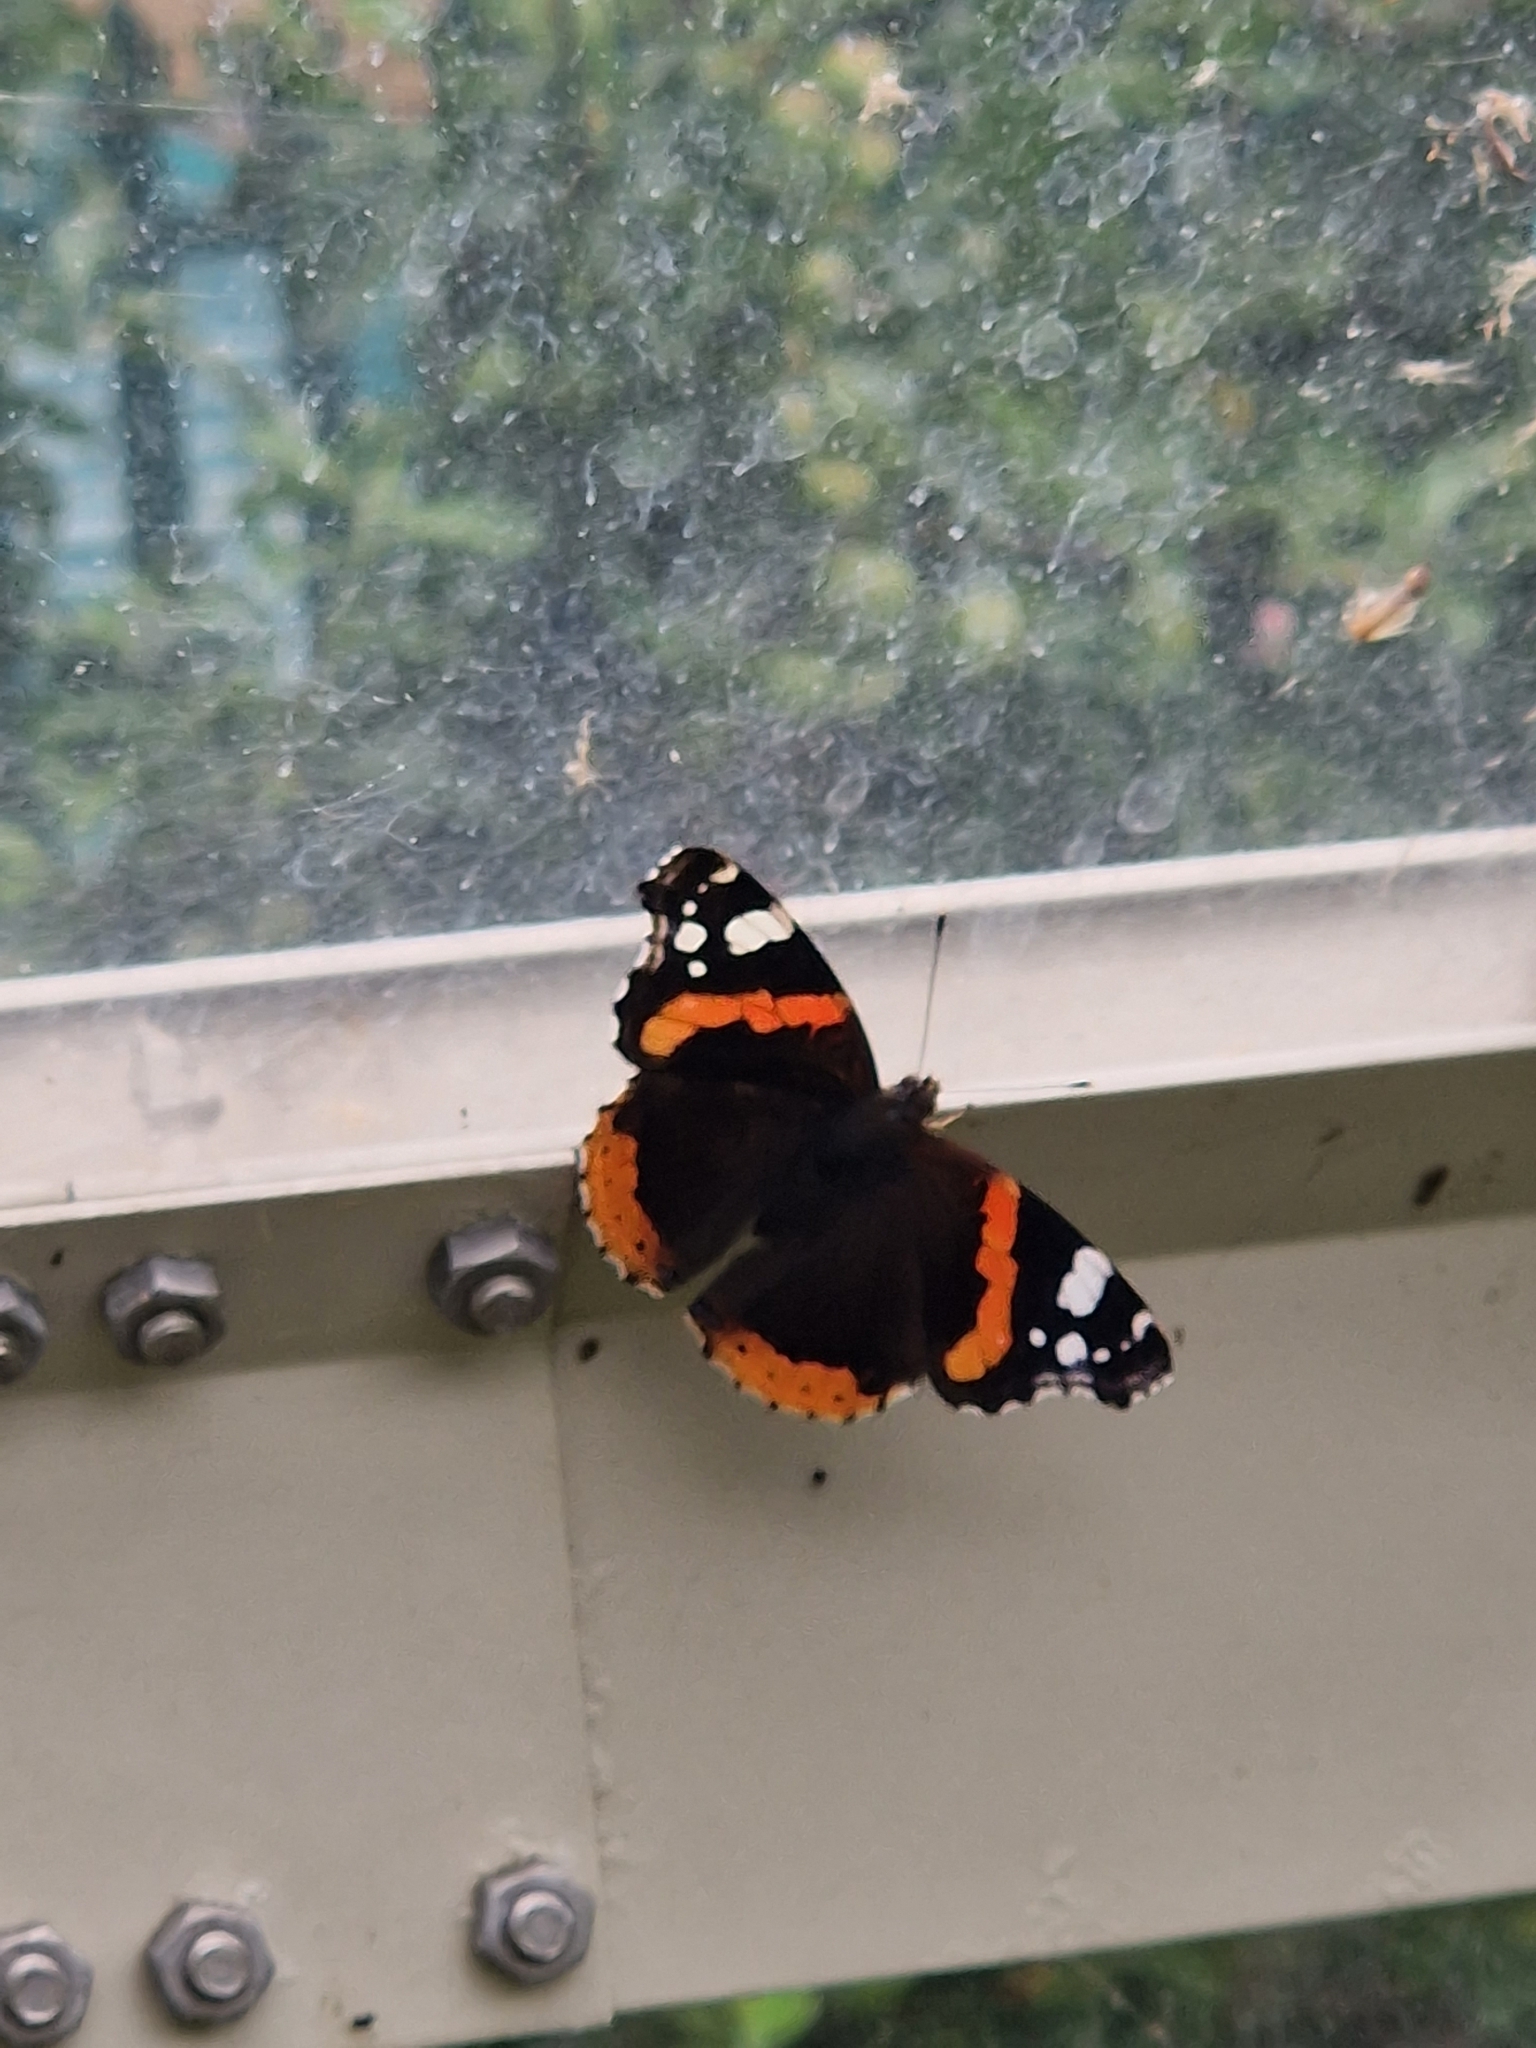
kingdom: Animalia
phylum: Arthropoda
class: Insecta
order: Lepidoptera
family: Nymphalidae
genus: Vanessa
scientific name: Vanessa atalanta
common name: Red admiral
